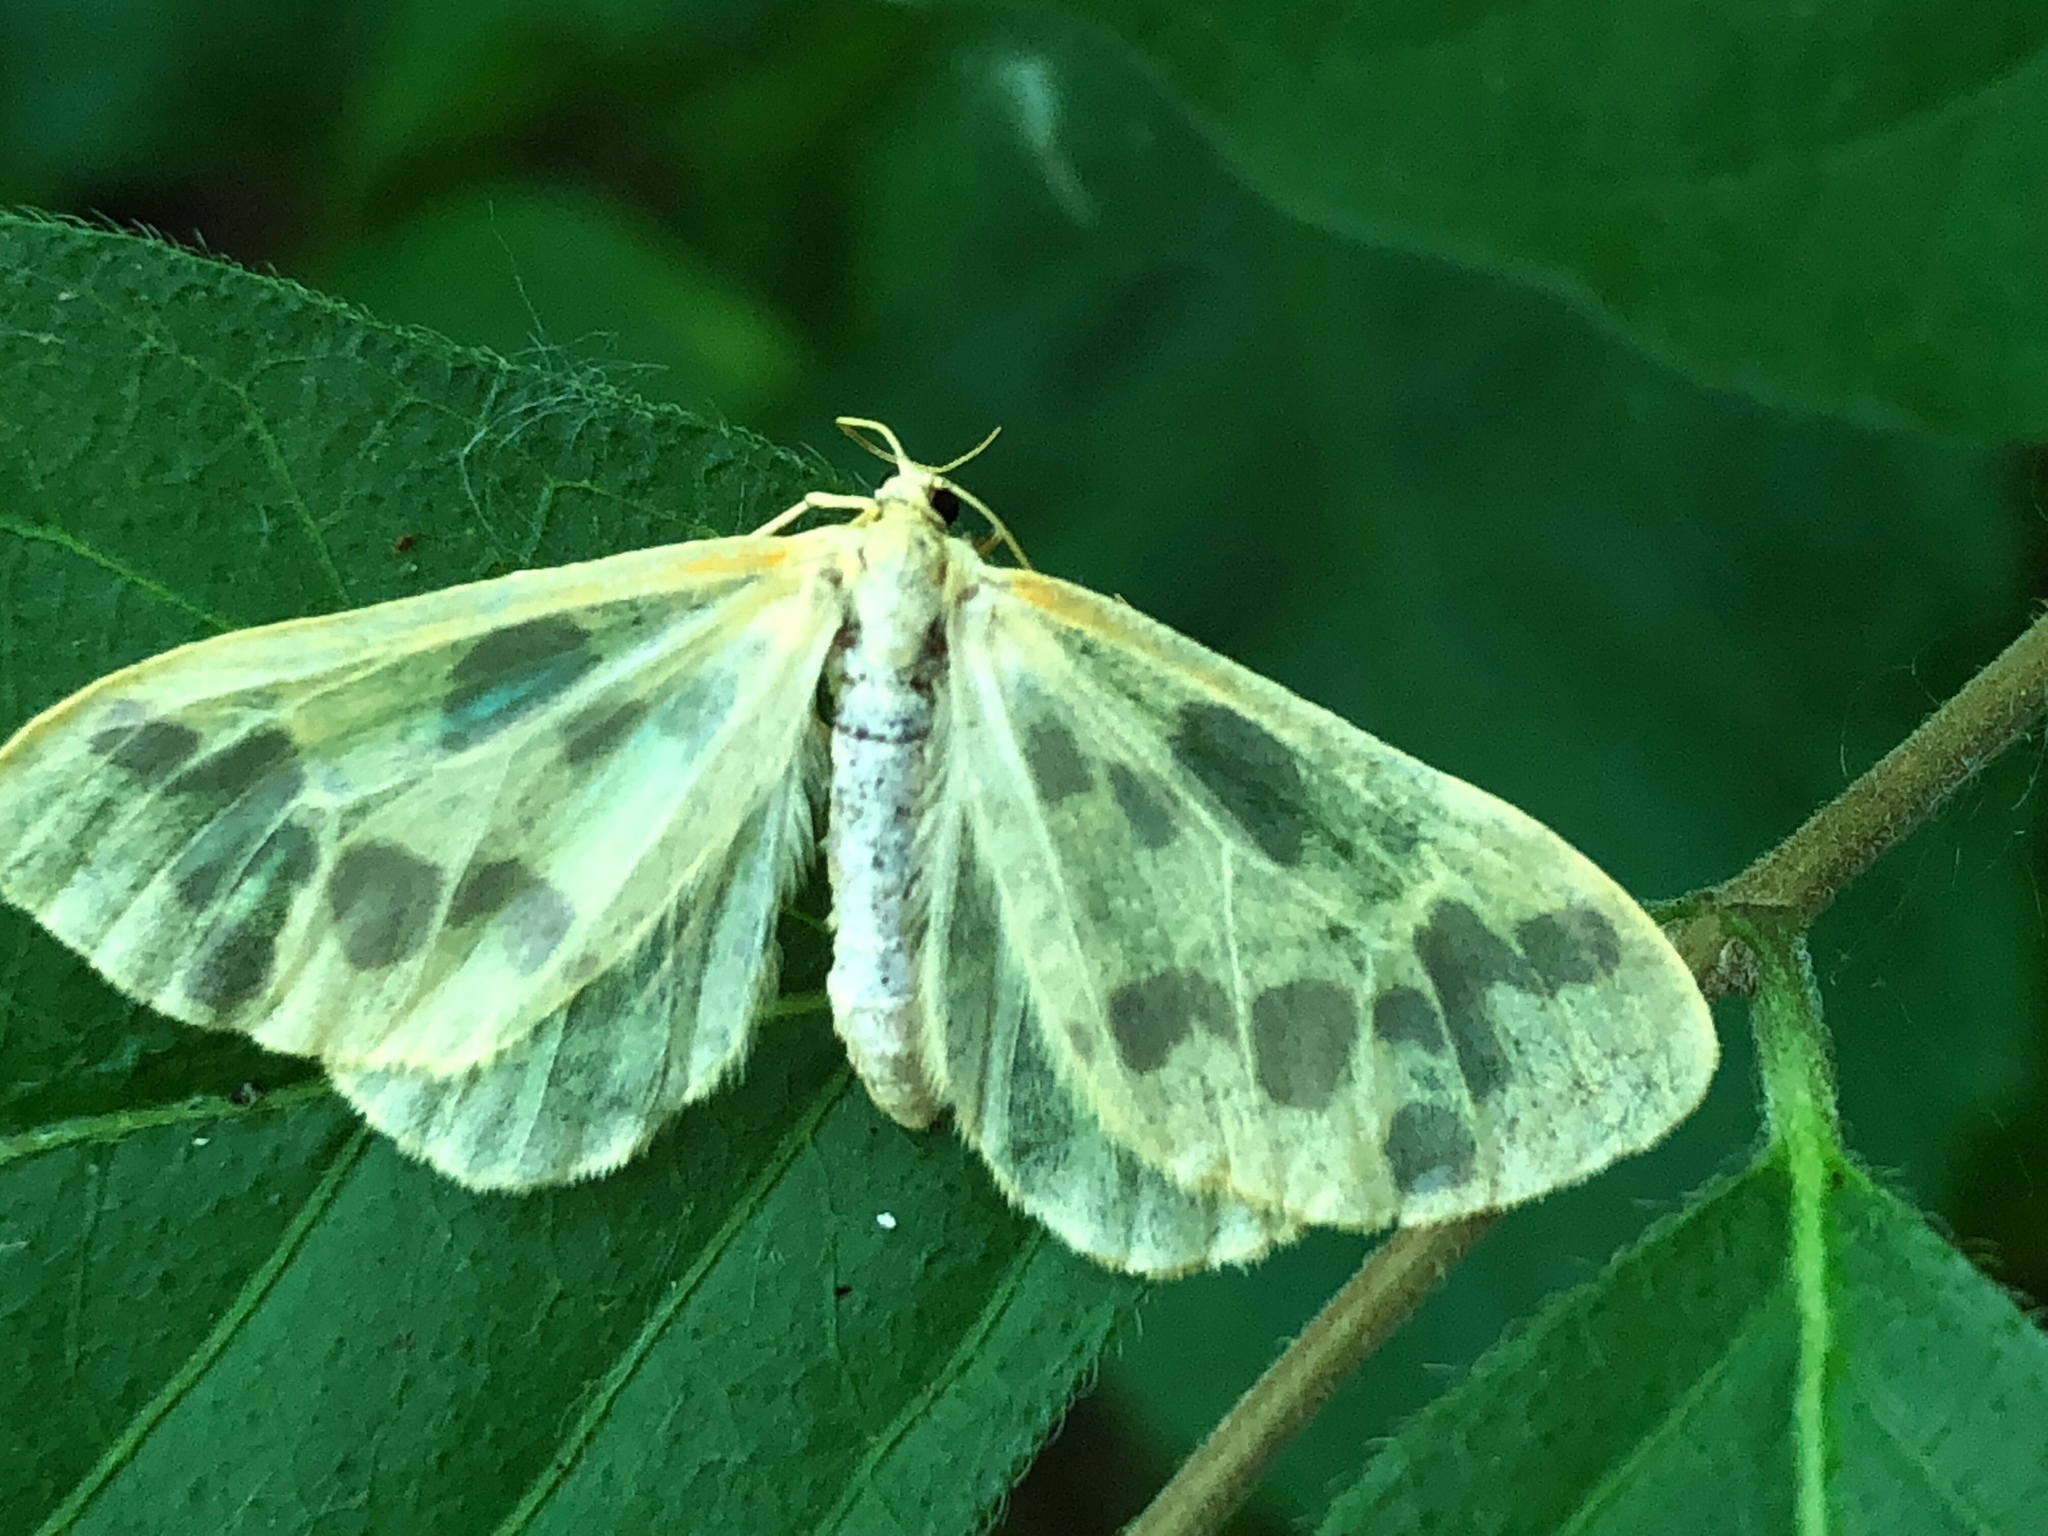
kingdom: Animalia
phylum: Arthropoda
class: Insecta
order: Lepidoptera
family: Geometridae
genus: Eubaphe
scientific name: Eubaphe mendica
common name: Beggar
